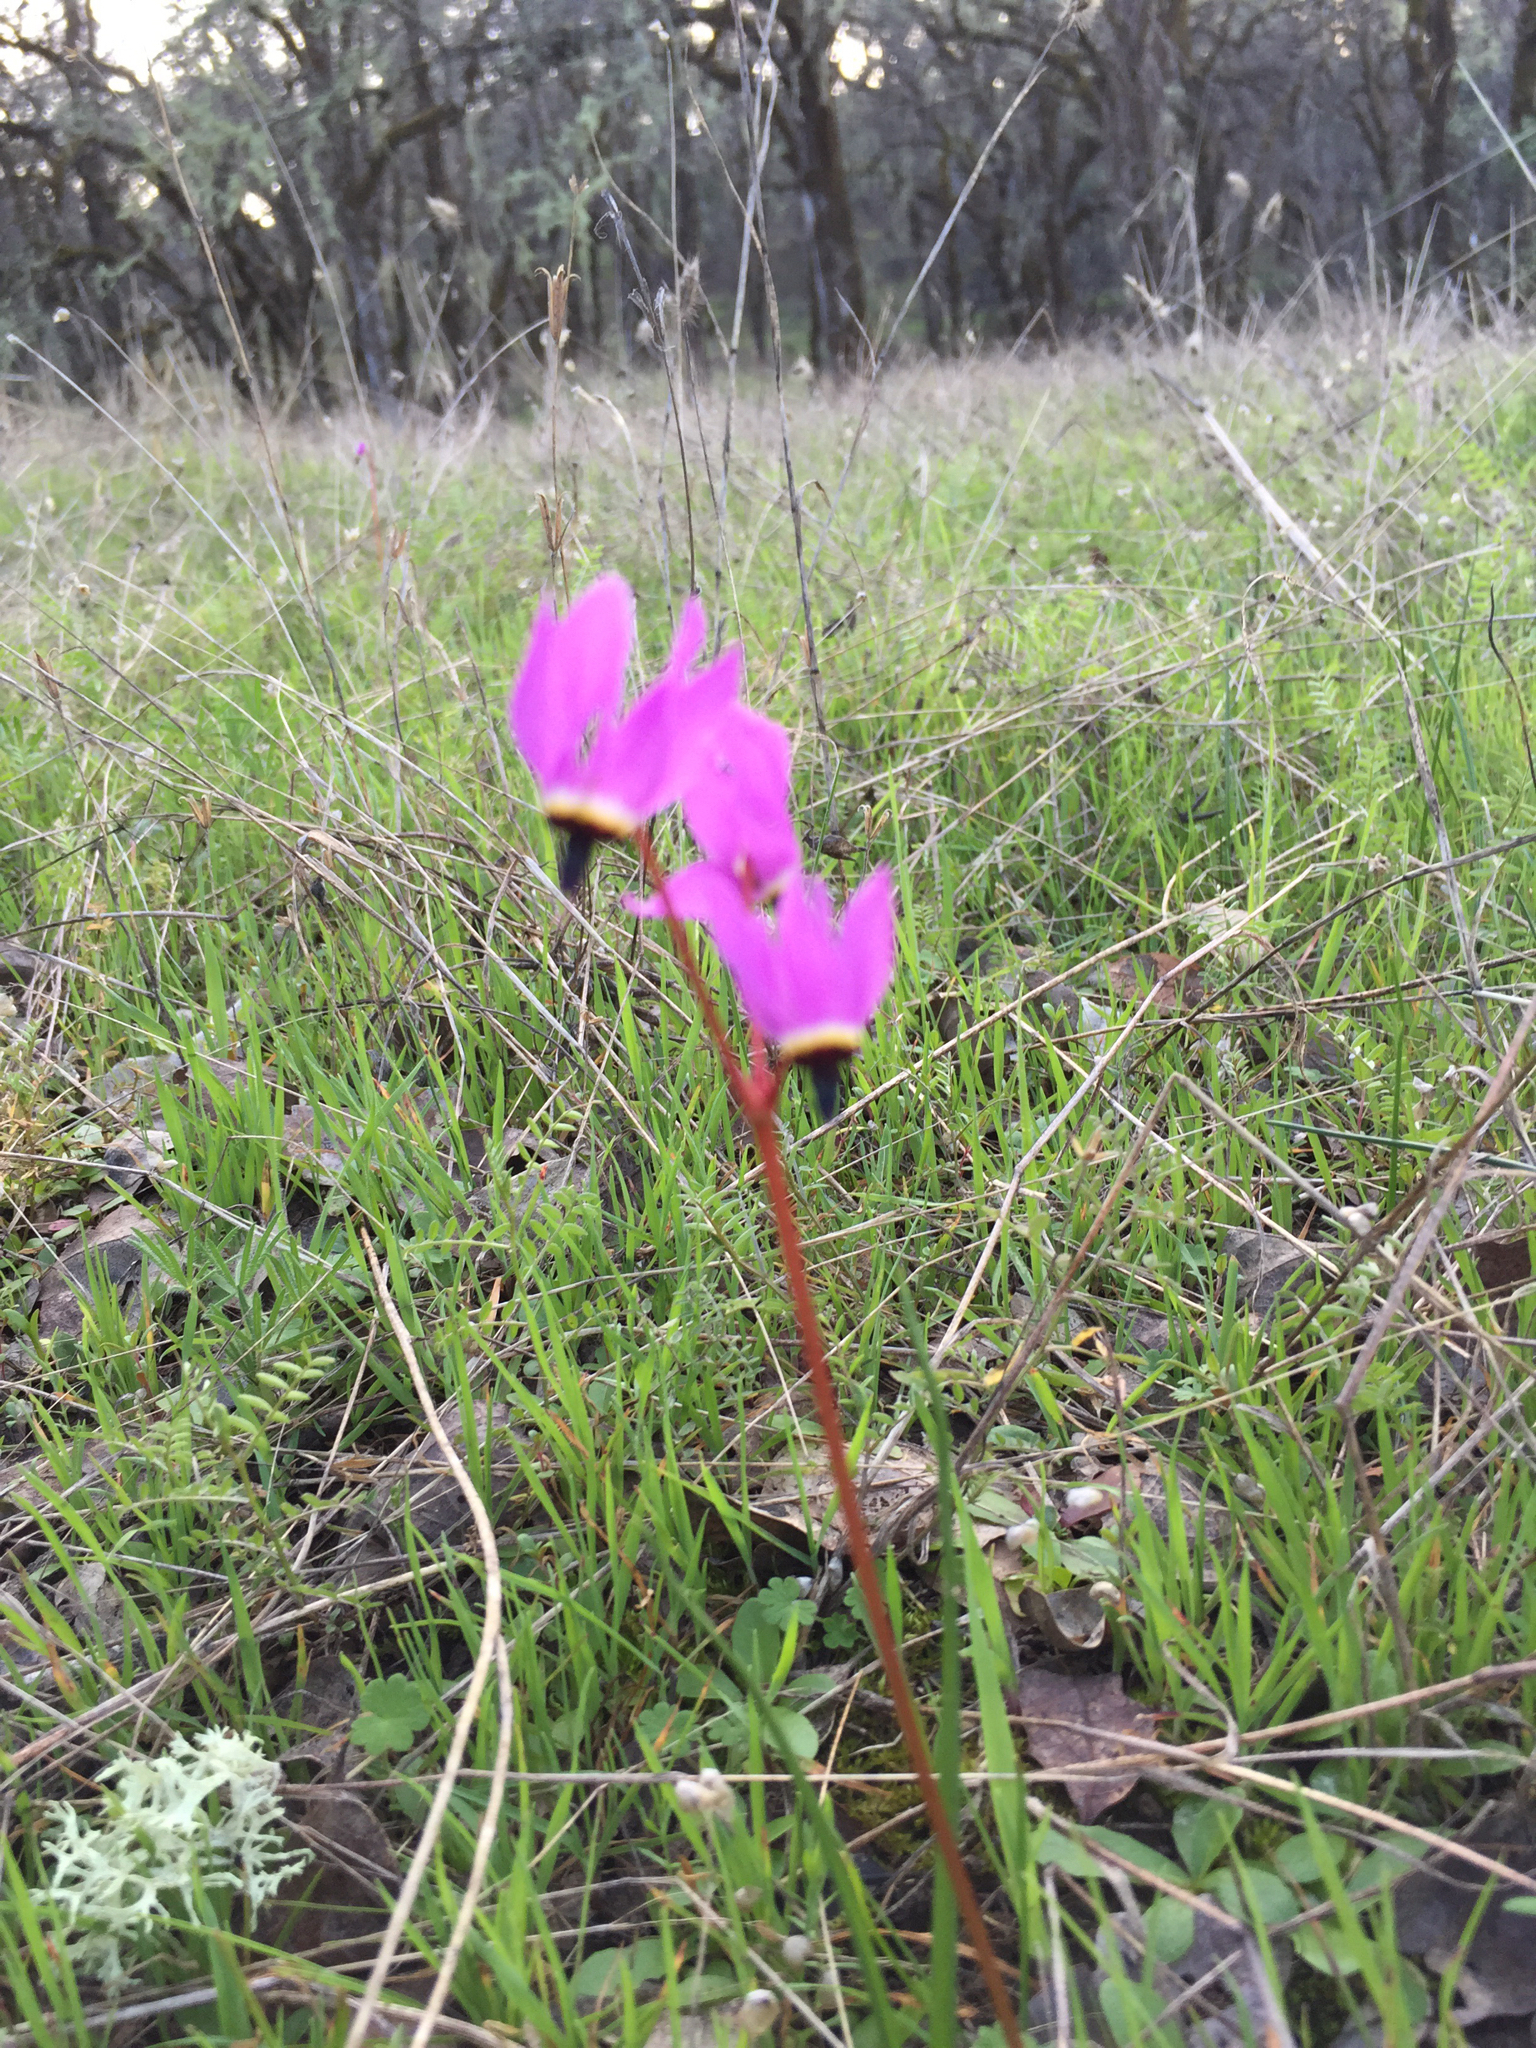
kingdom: Plantae
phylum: Tracheophyta
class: Magnoliopsida
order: Ericales
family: Primulaceae
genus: Dodecatheon
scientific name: Dodecatheon hendersonii
